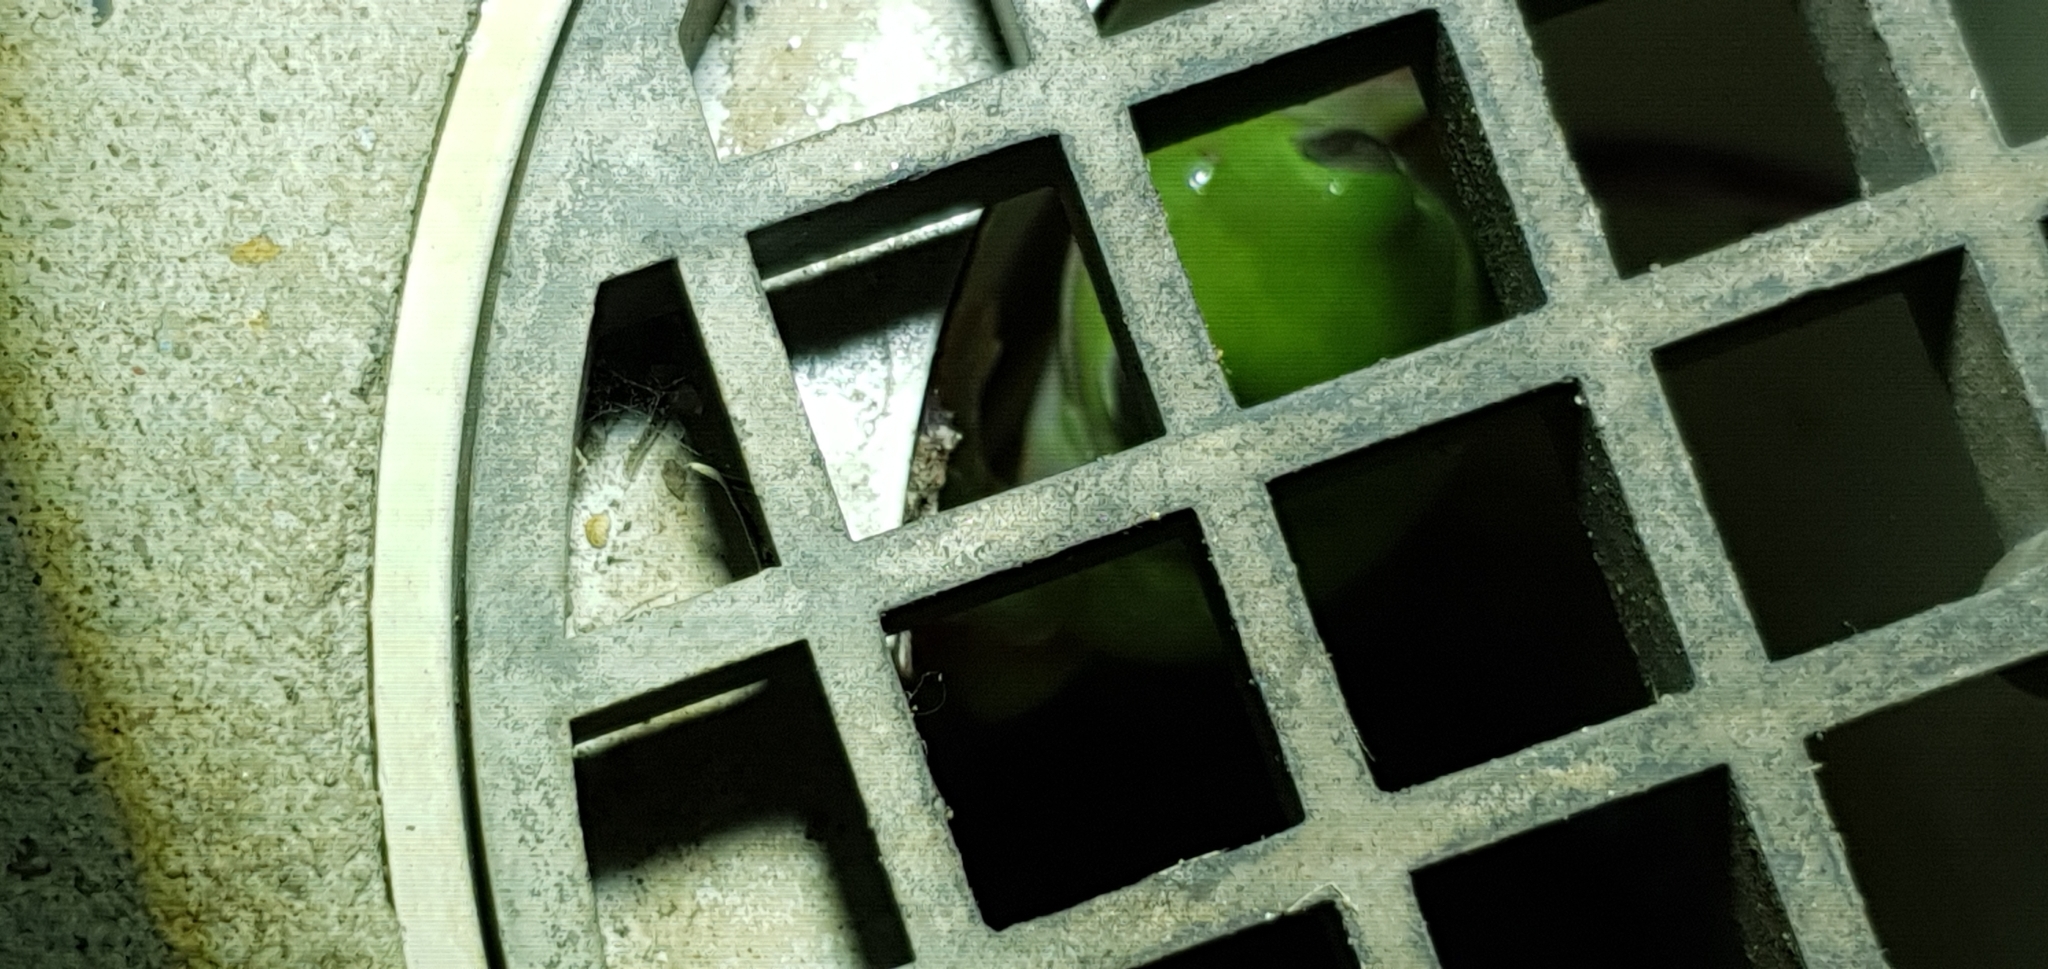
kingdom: Animalia
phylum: Chordata
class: Amphibia
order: Anura
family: Pelodryadidae
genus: Ranoidea
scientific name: Ranoidea caerulea
